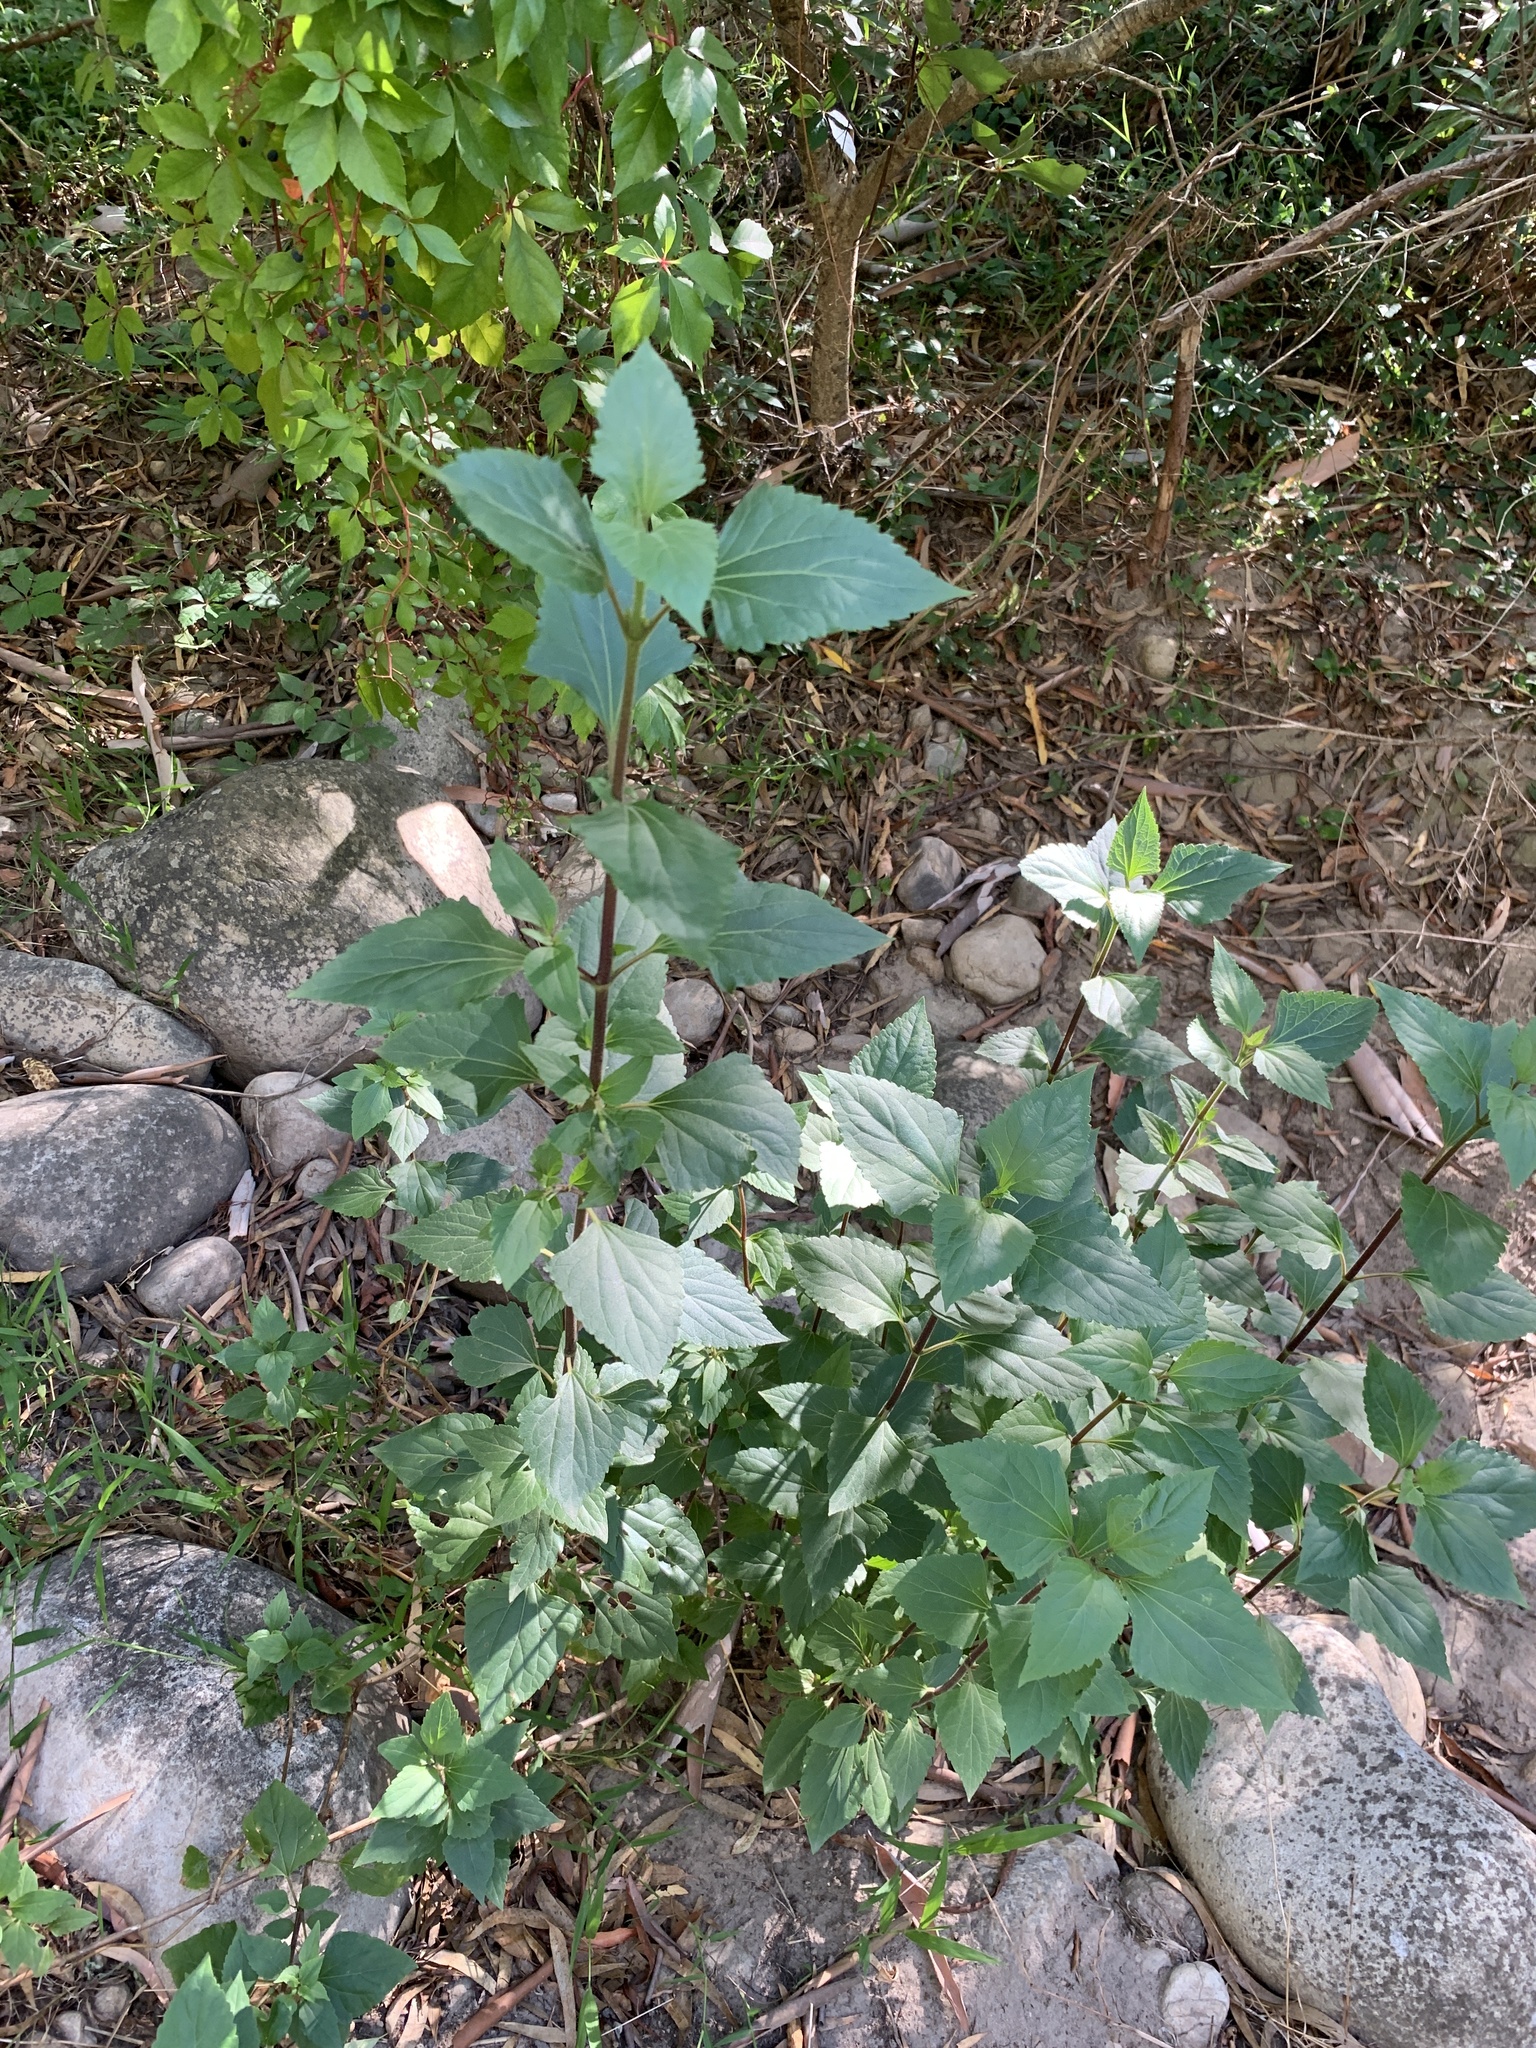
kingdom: Plantae
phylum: Tracheophyta
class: Magnoliopsida
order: Asterales
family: Asteraceae
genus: Ageratina
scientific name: Ageratina adenophora
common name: Sticky snakeroot
